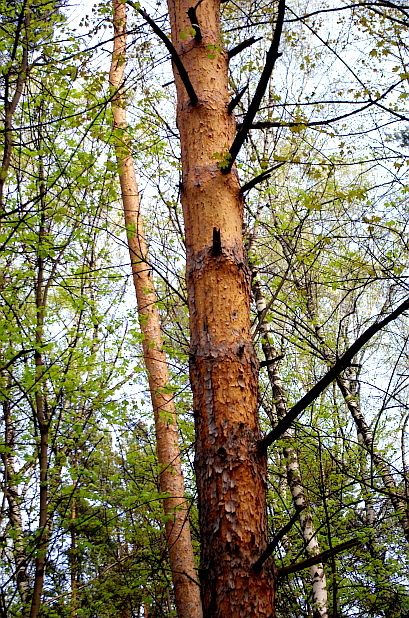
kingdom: Plantae
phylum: Tracheophyta
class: Pinopsida
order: Pinales
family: Pinaceae
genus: Pinus
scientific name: Pinus sylvestris
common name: Scots pine
